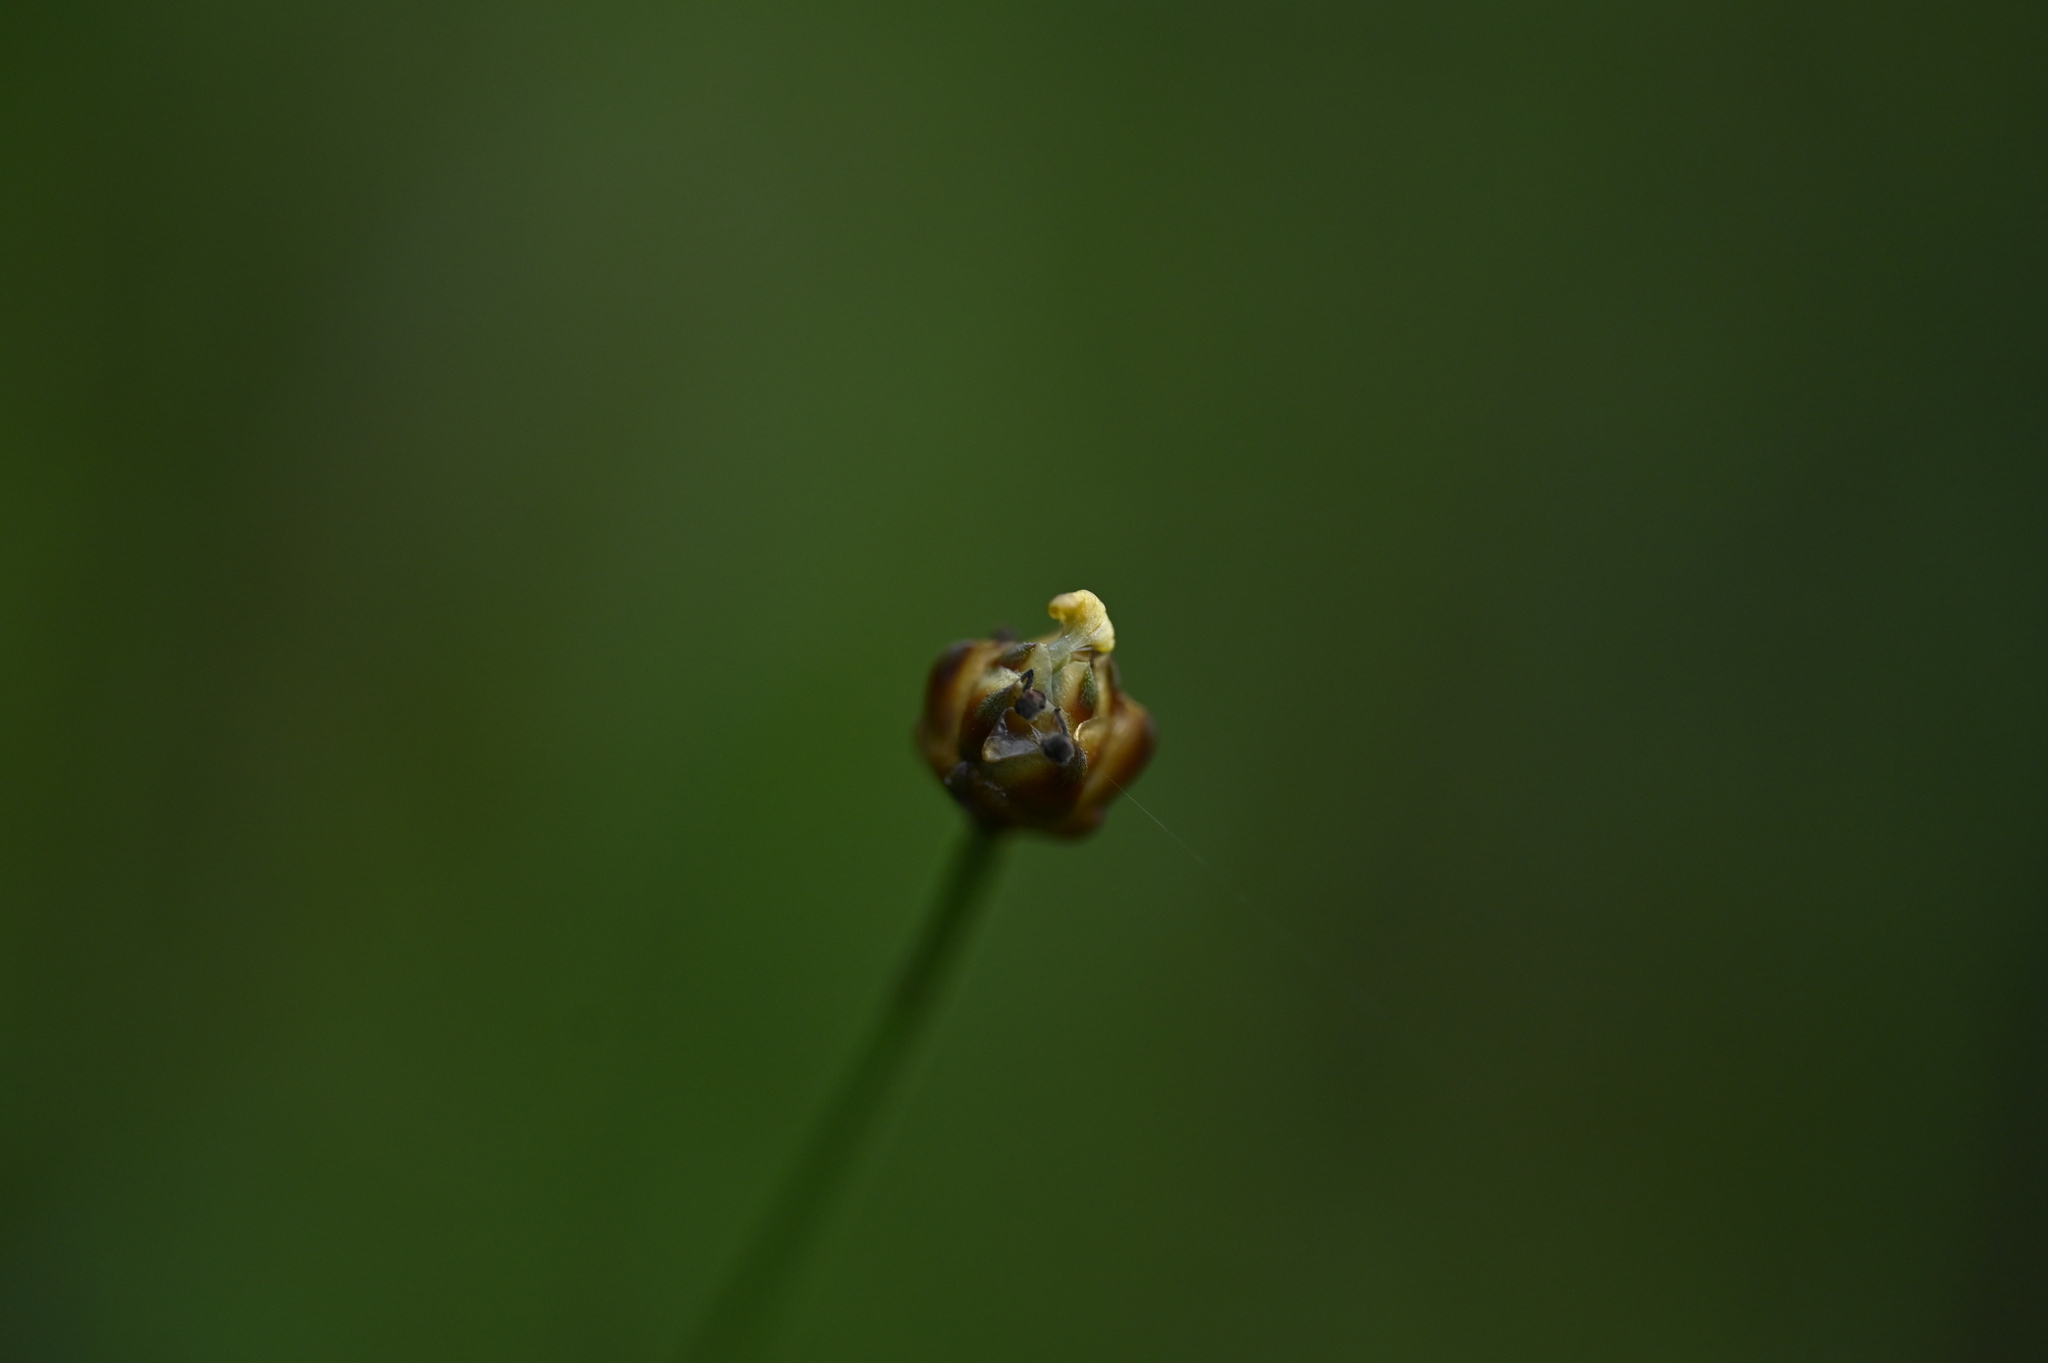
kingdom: Plantae
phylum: Tracheophyta
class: Liliopsida
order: Poales
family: Xyridaceae
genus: Xyris
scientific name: Xyris formosana
